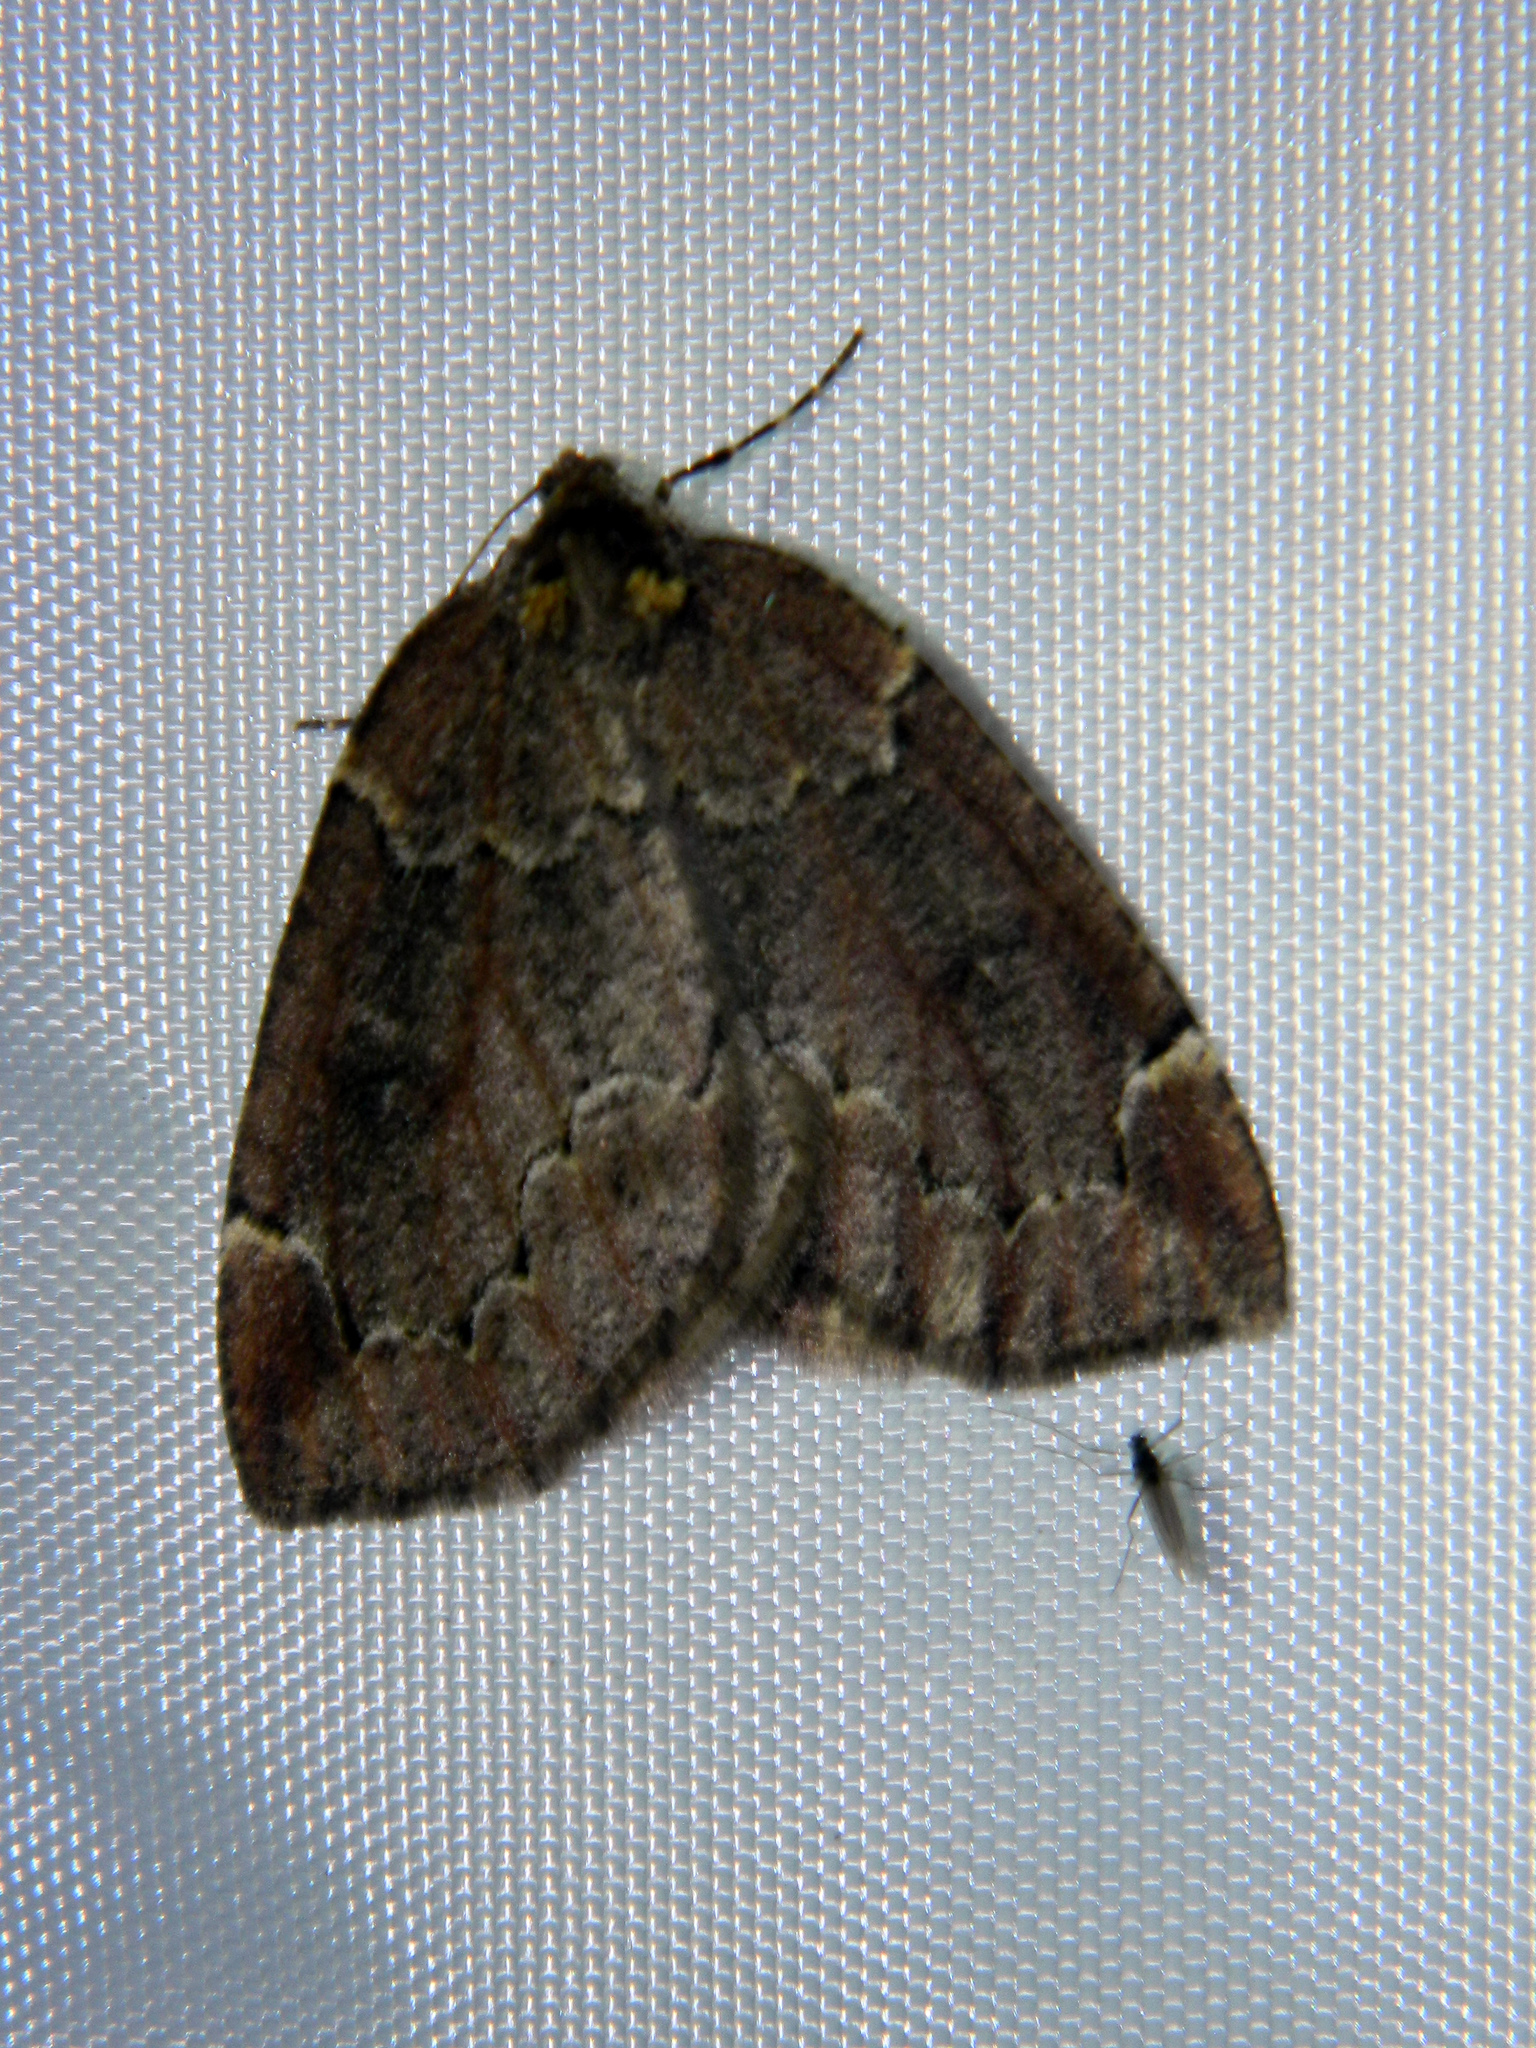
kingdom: Animalia
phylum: Arthropoda
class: Insecta
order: Lepidoptera
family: Geometridae
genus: Spodolepis
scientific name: Spodolepis substriataria
